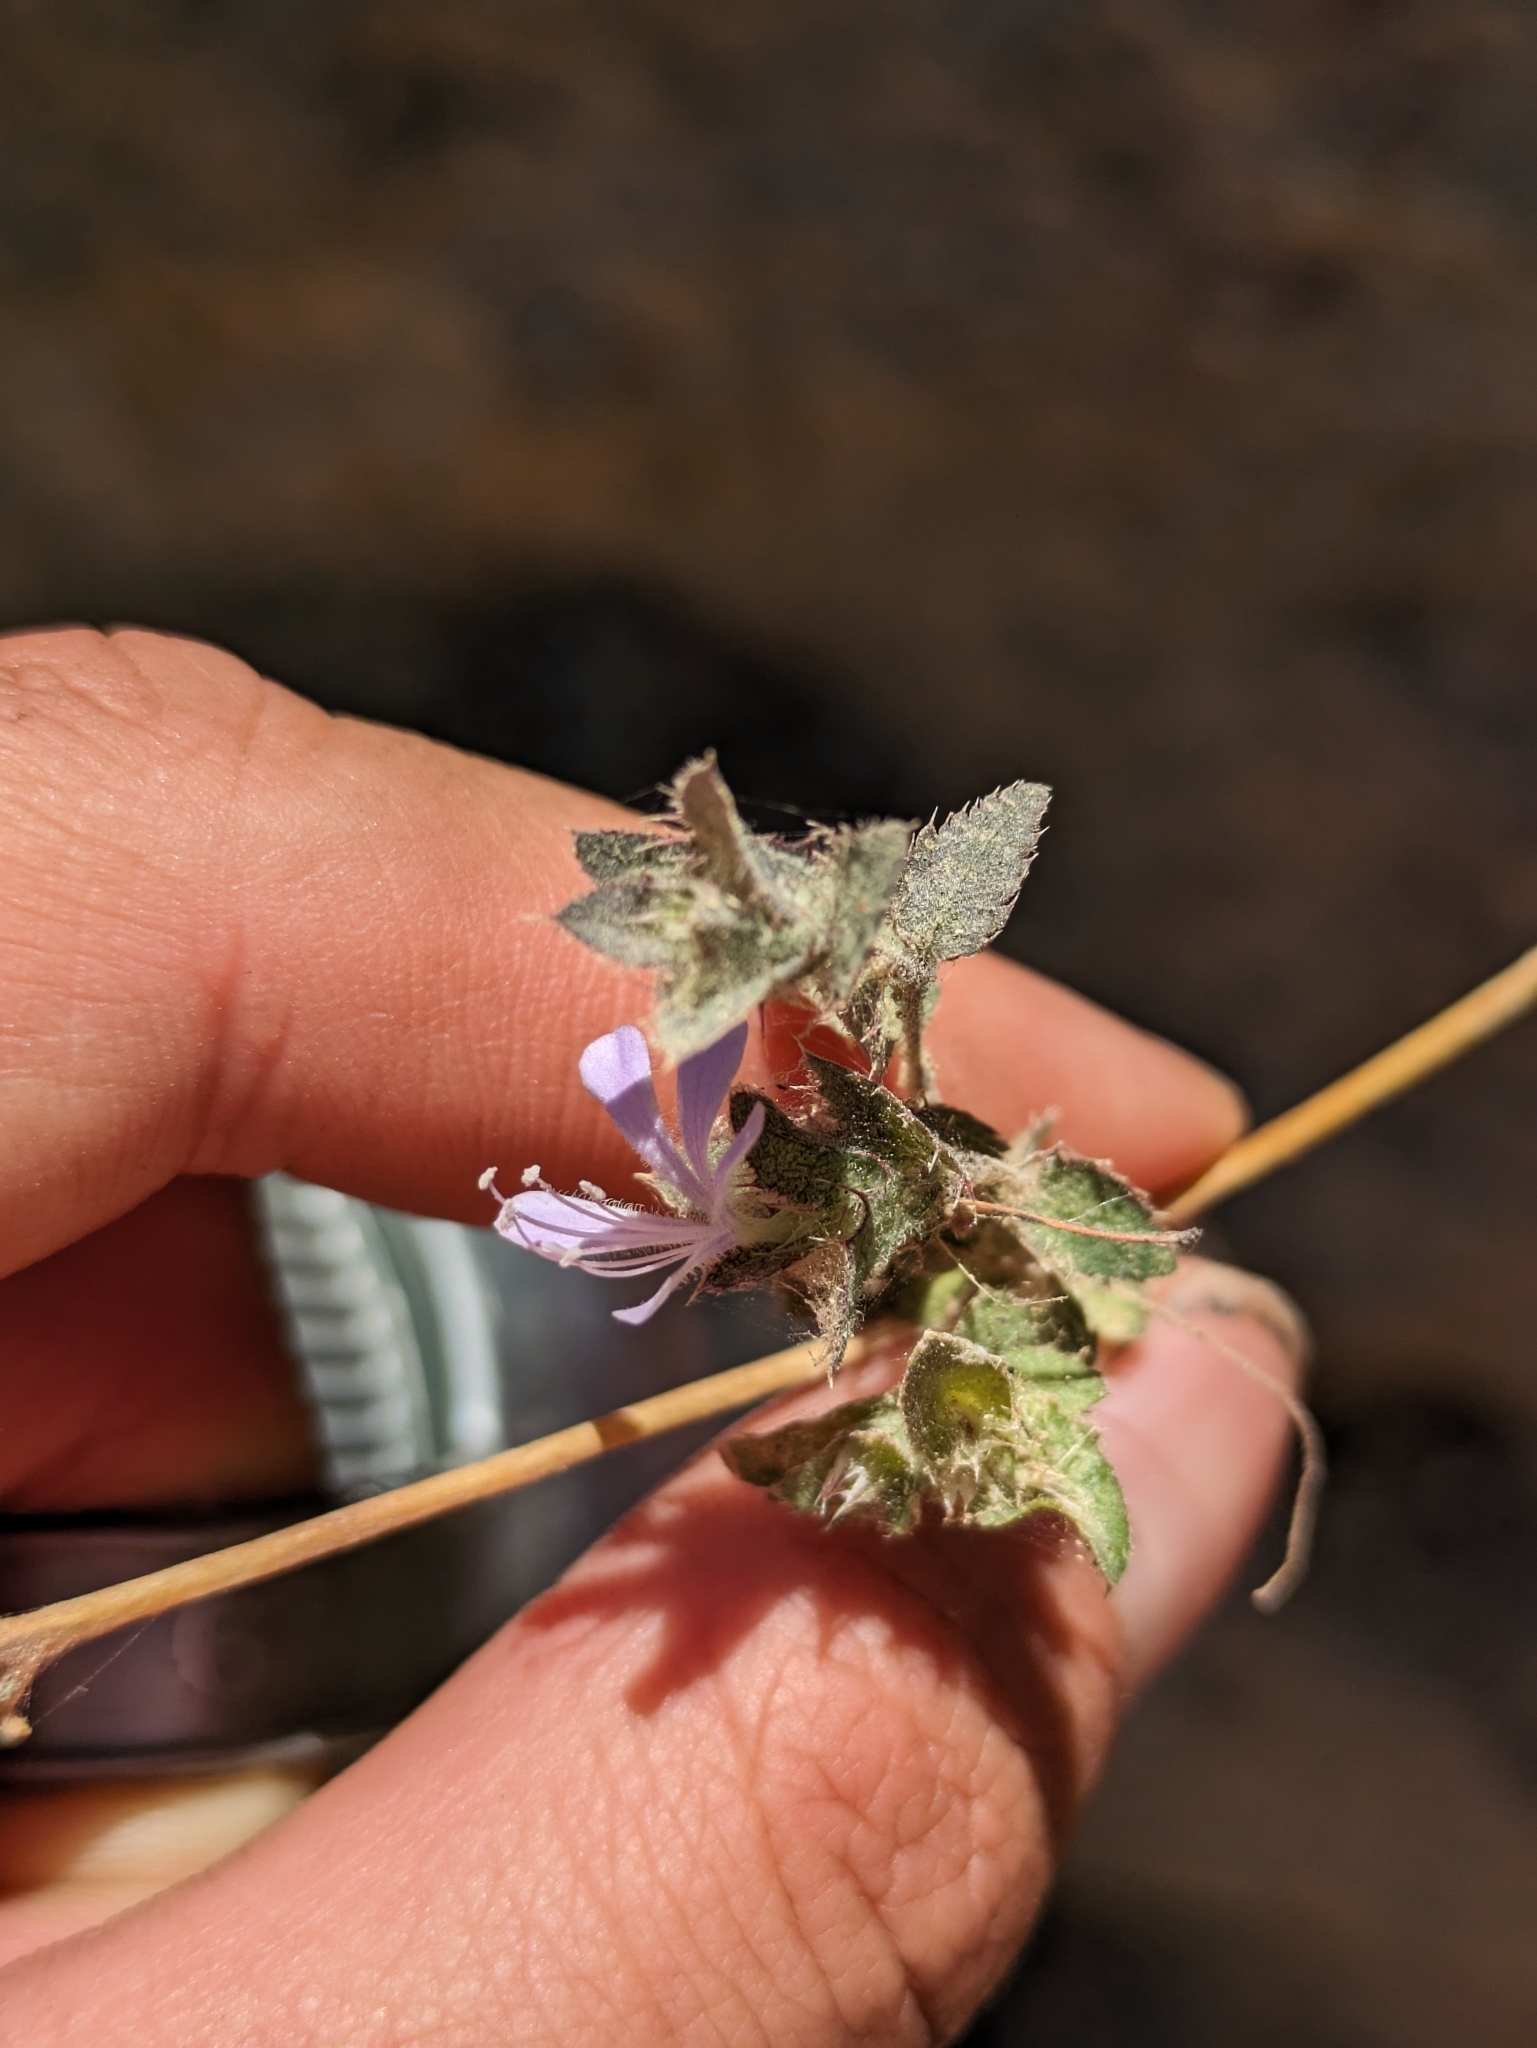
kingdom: Plantae
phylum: Tracheophyta
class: Magnoliopsida
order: Ericales
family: Polemoniaceae
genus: Loeselia
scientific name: Loeselia ciliata
